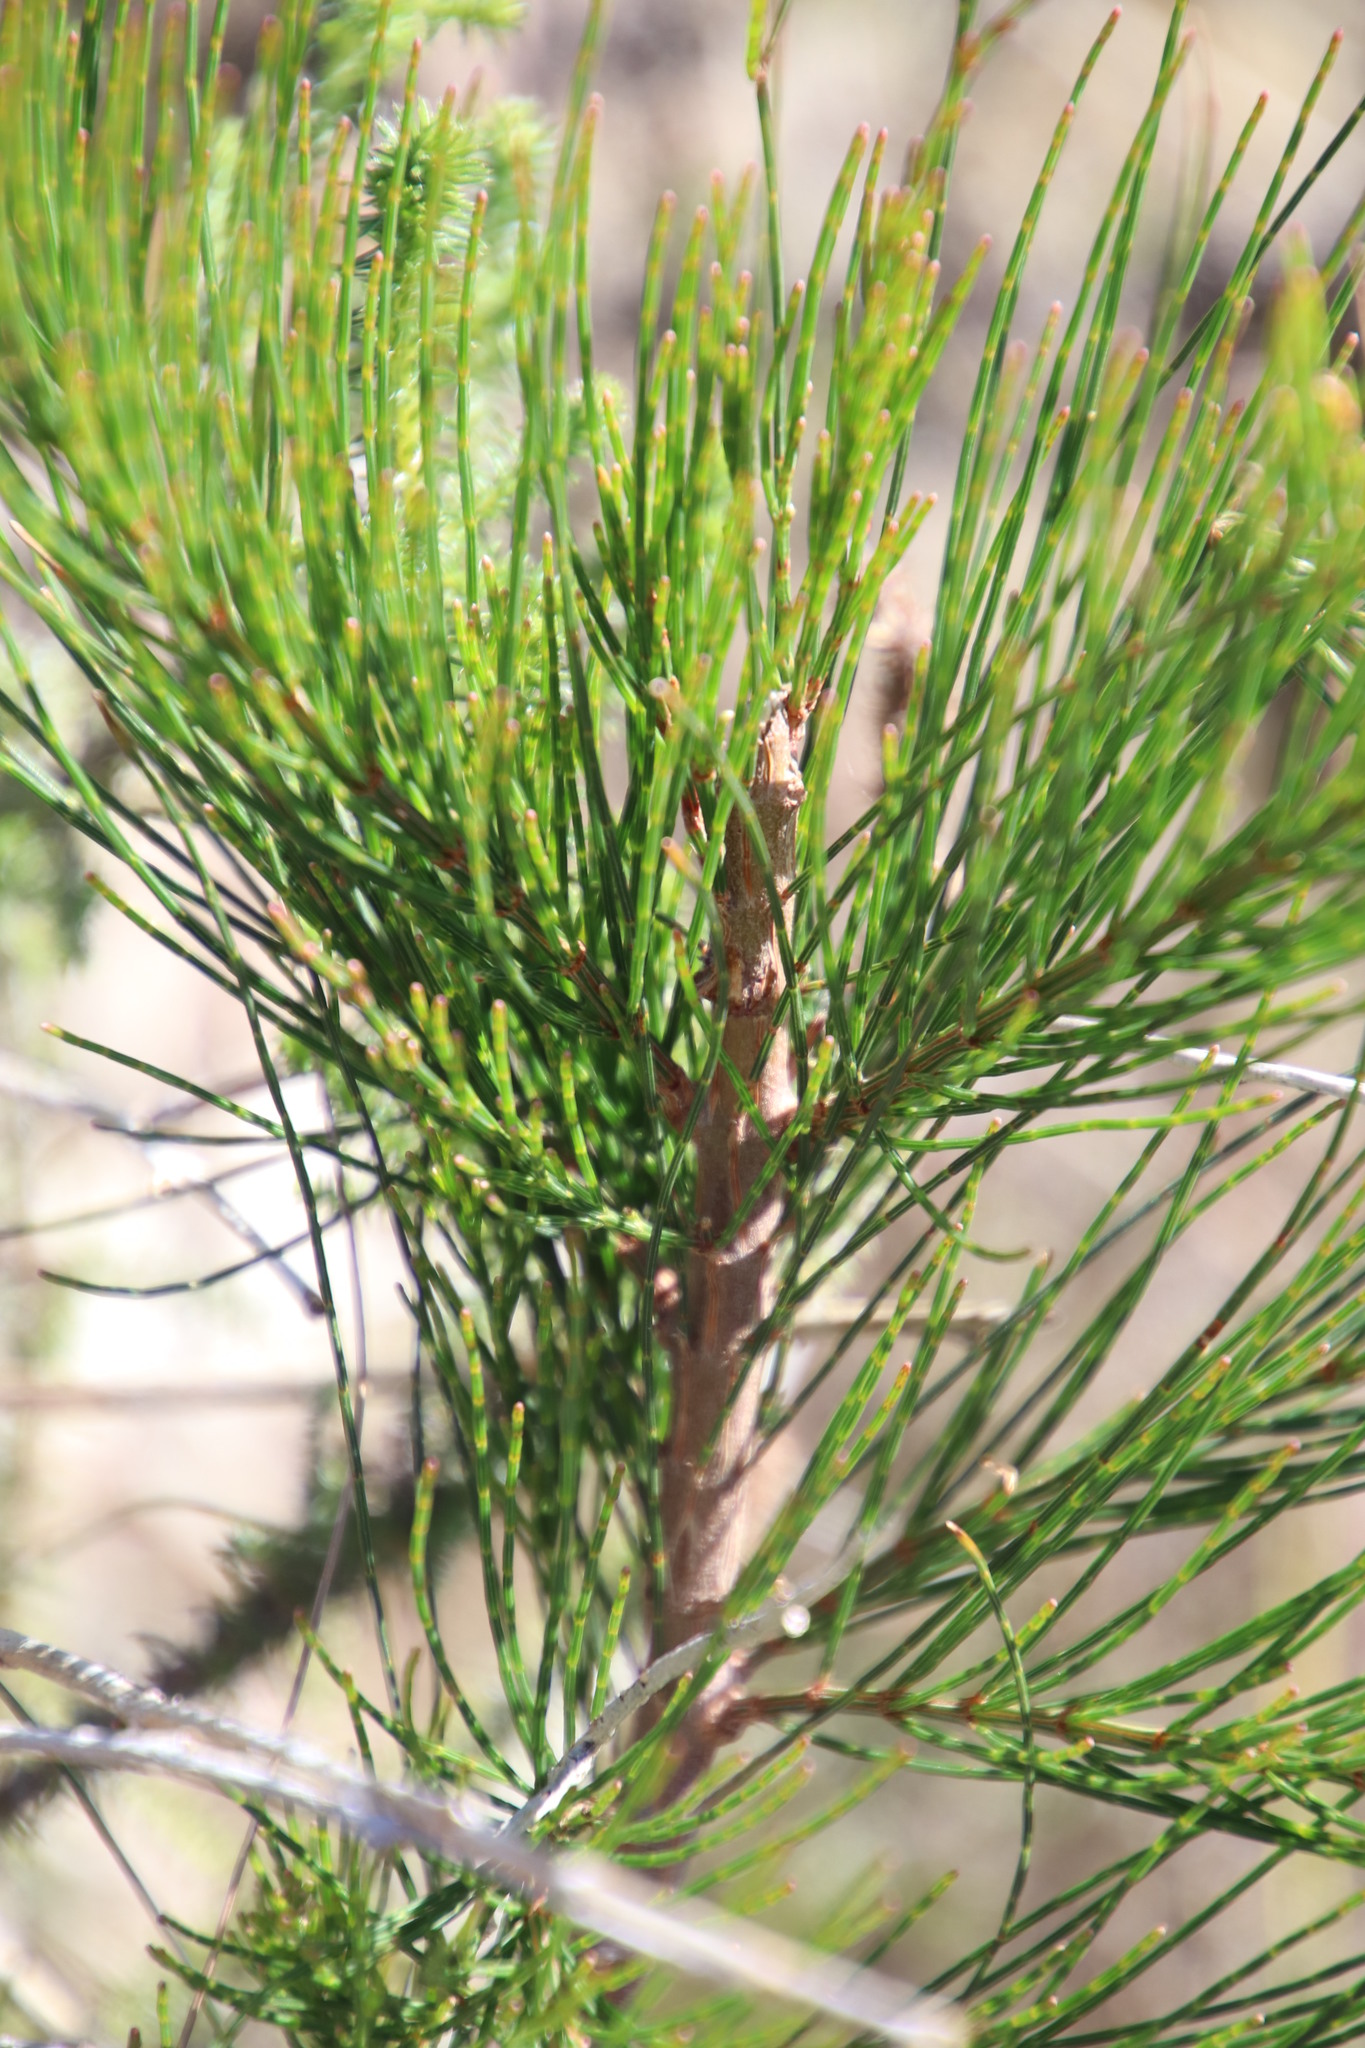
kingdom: Plantae
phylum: Tracheophyta
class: Magnoliopsida
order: Fagales
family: Casuarinaceae
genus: Allocasuarina
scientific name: Allocasuarina littoralis
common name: Black she-oak
